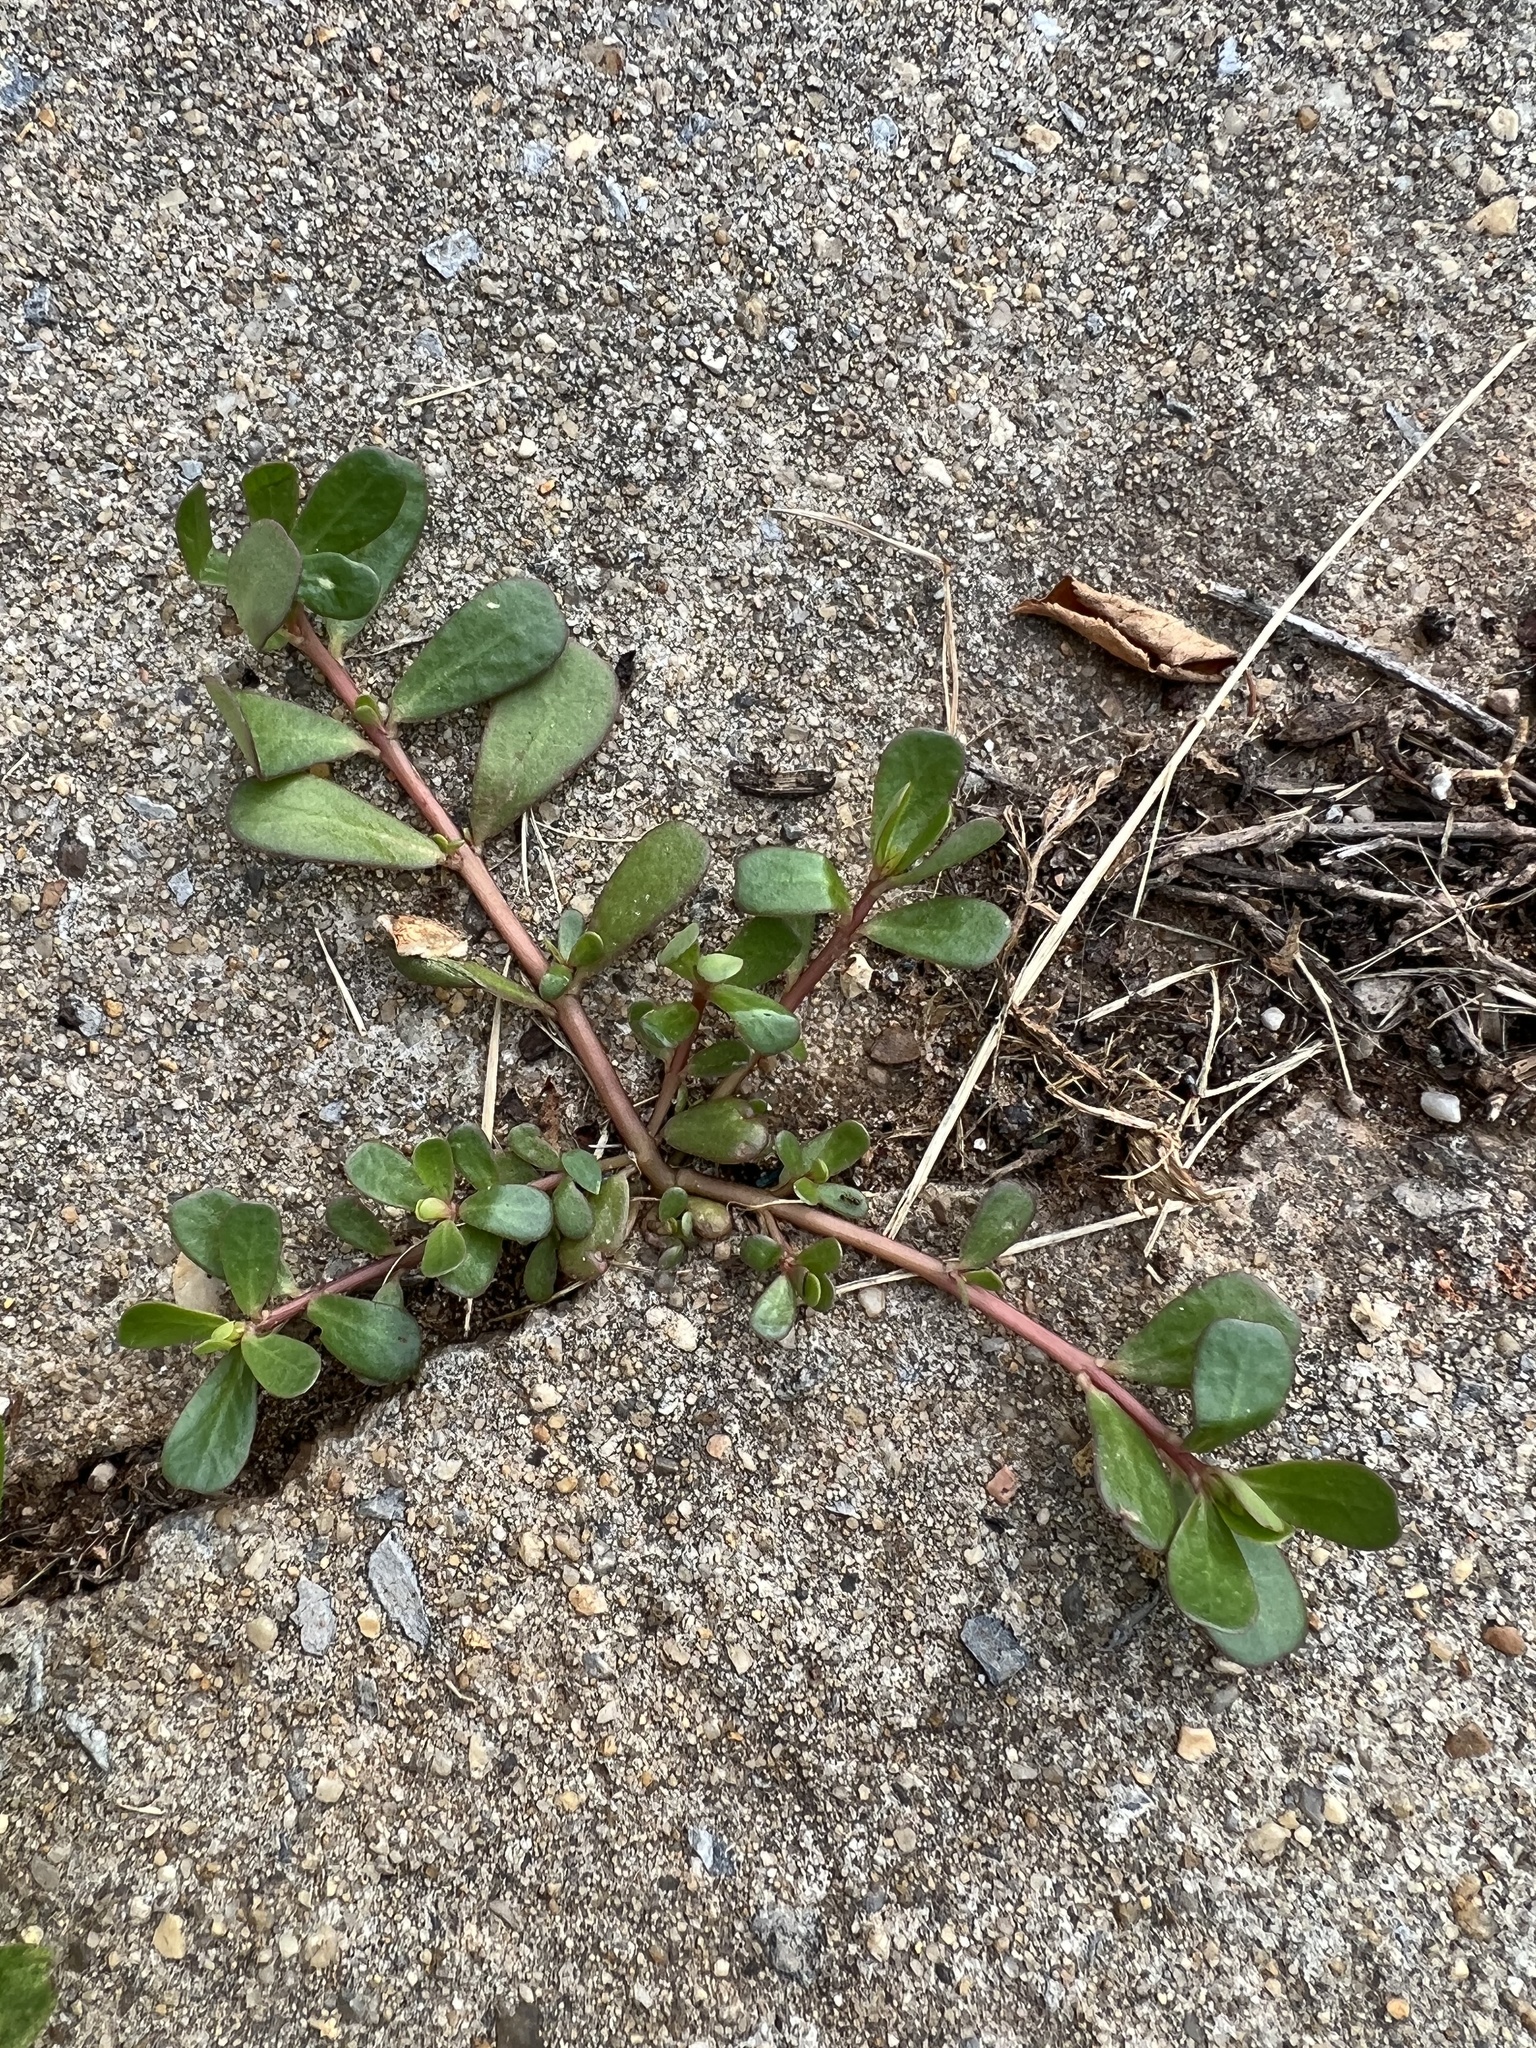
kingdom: Plantae
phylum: Tracheophyta
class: Magnoliopsida
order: Caryophyllales
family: Portulacaceae
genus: Portulaca
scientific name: Portulaca oleracea
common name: Common purslane
